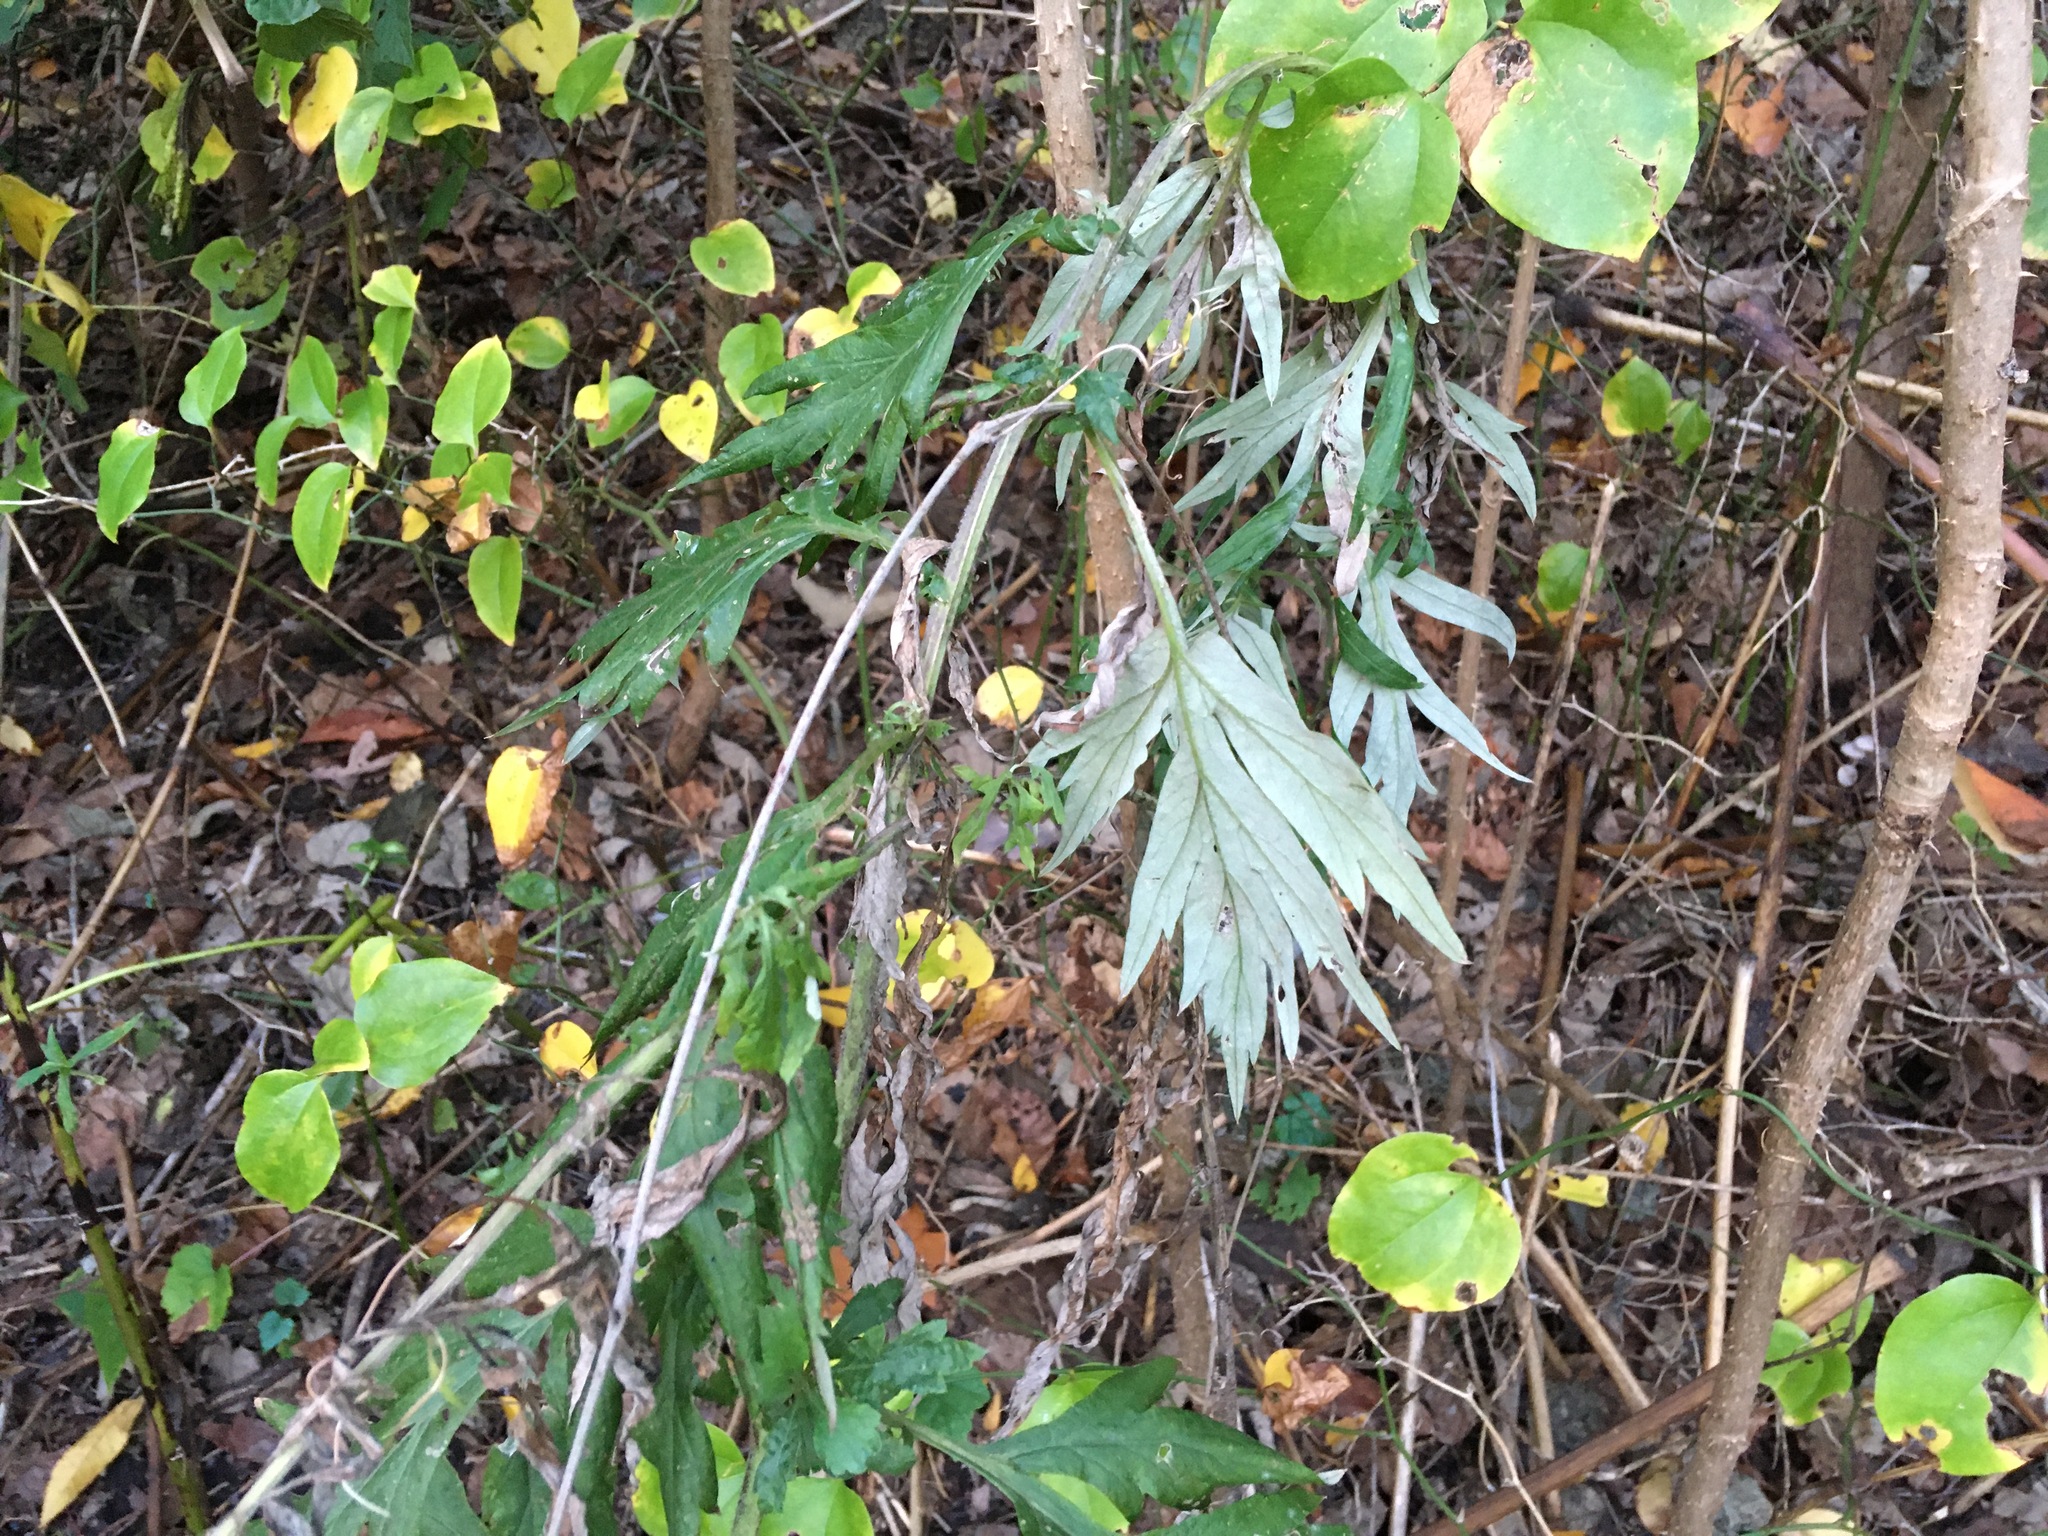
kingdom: Plantae
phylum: Tracheophyta
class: Magnoliopsida
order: Asterales
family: Asteraceae
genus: Artemisia
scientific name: Artemisia vulgaris
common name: Mugwort
